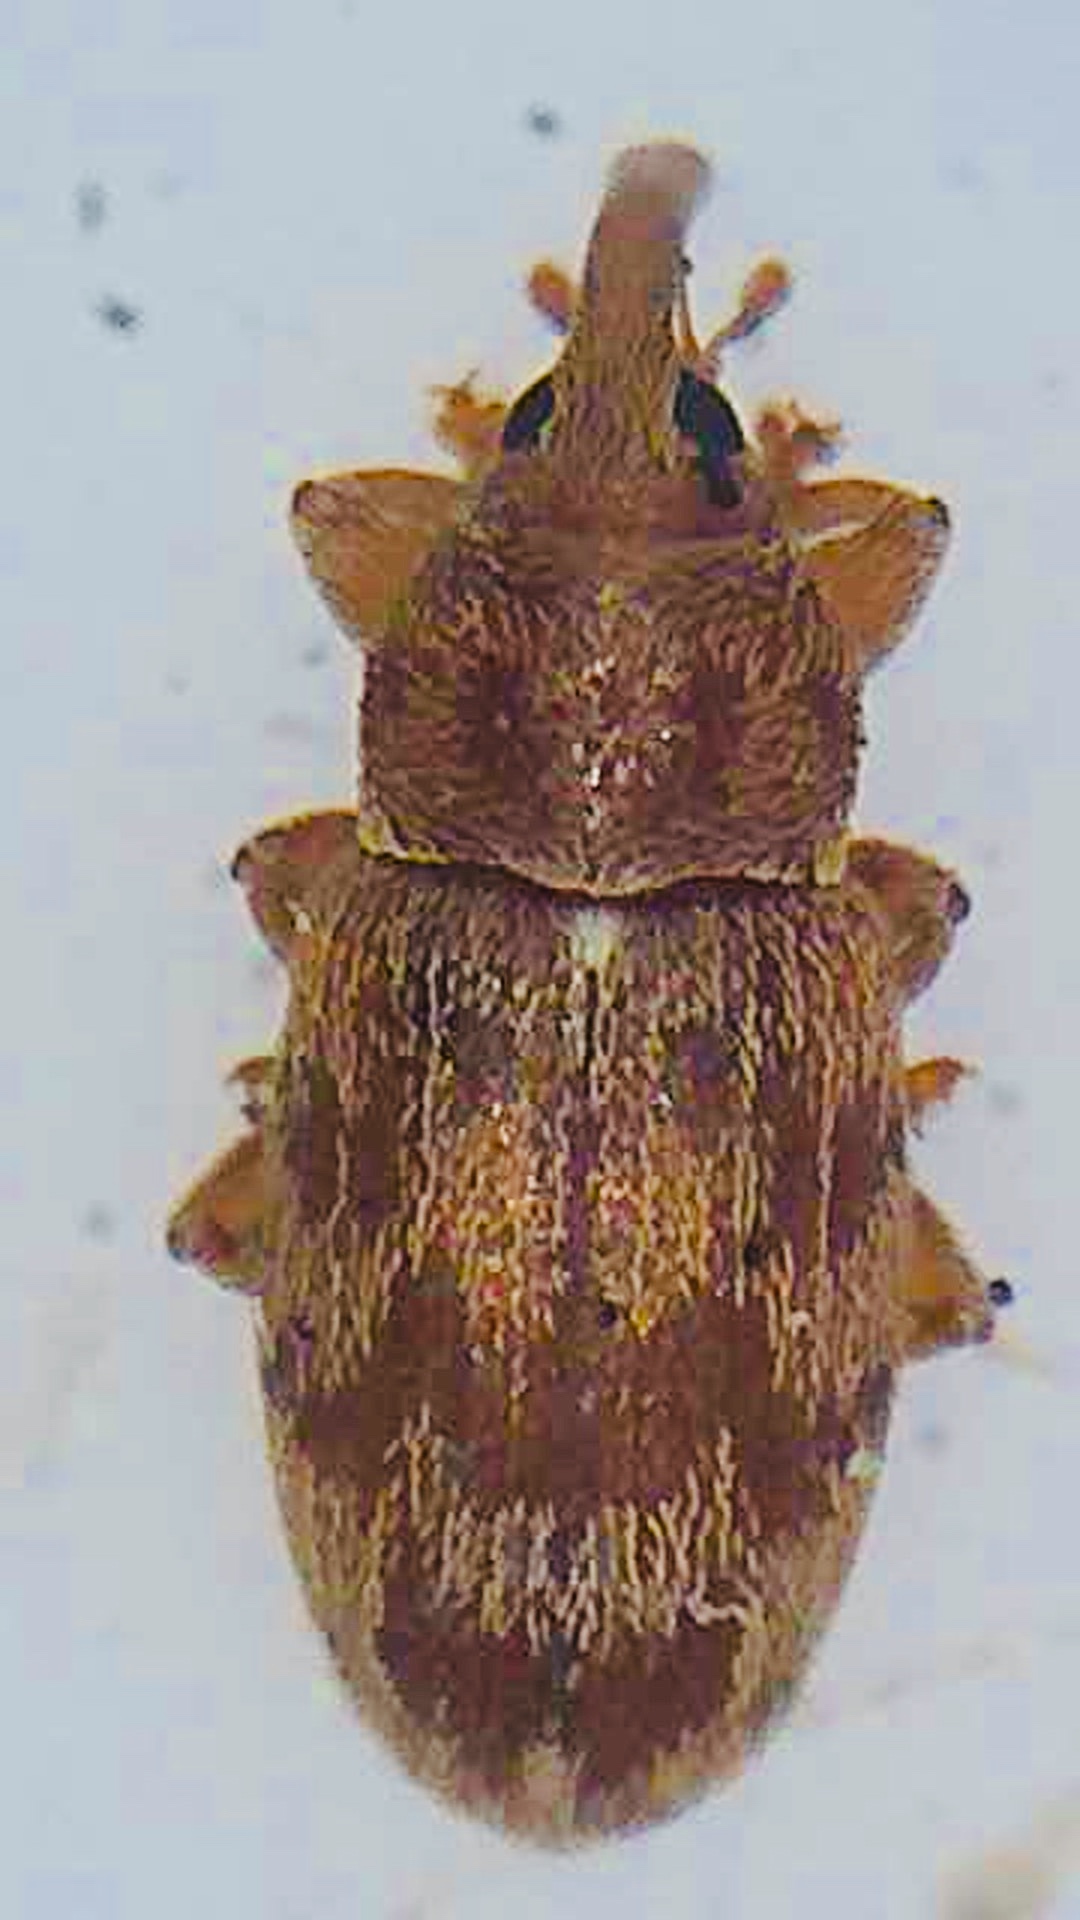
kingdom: Animalia
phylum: Arthropoda
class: Insecta
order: Coleoptera
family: Curculionidae
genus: Epamoebus
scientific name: Epamoebus ziczac
